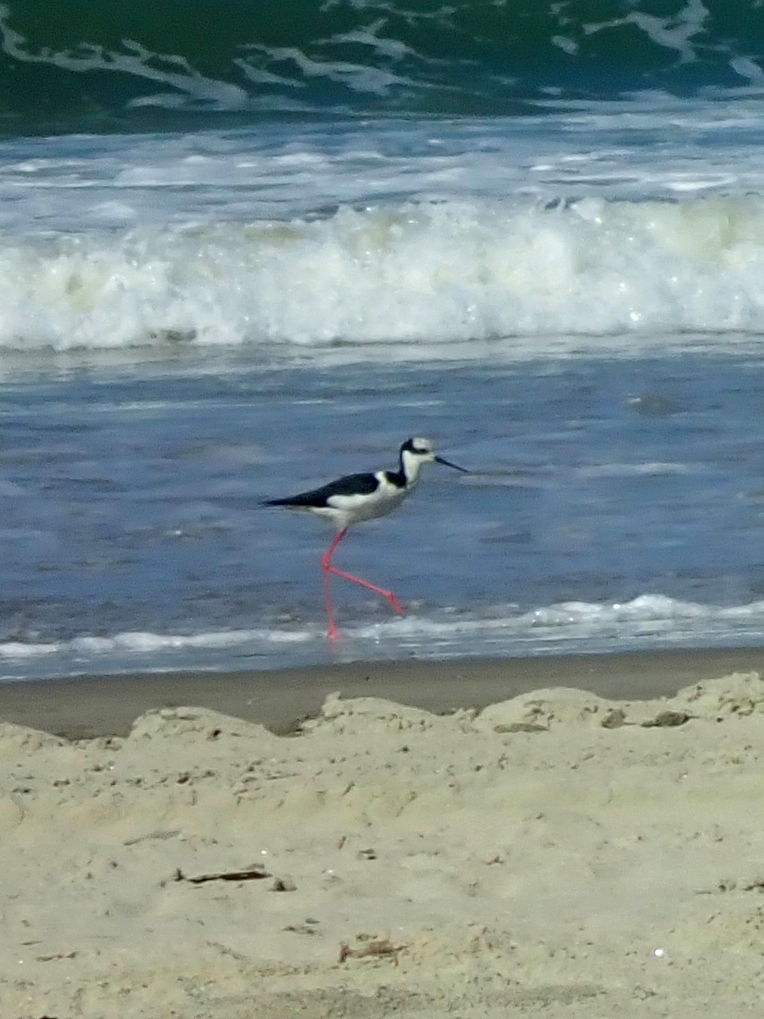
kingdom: Animalia
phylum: Chordata
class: Aves
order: Charadriiformes
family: Recurvirostridae
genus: Himantopus
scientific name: Himantopus mexicanus
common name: Black-necked stilt
